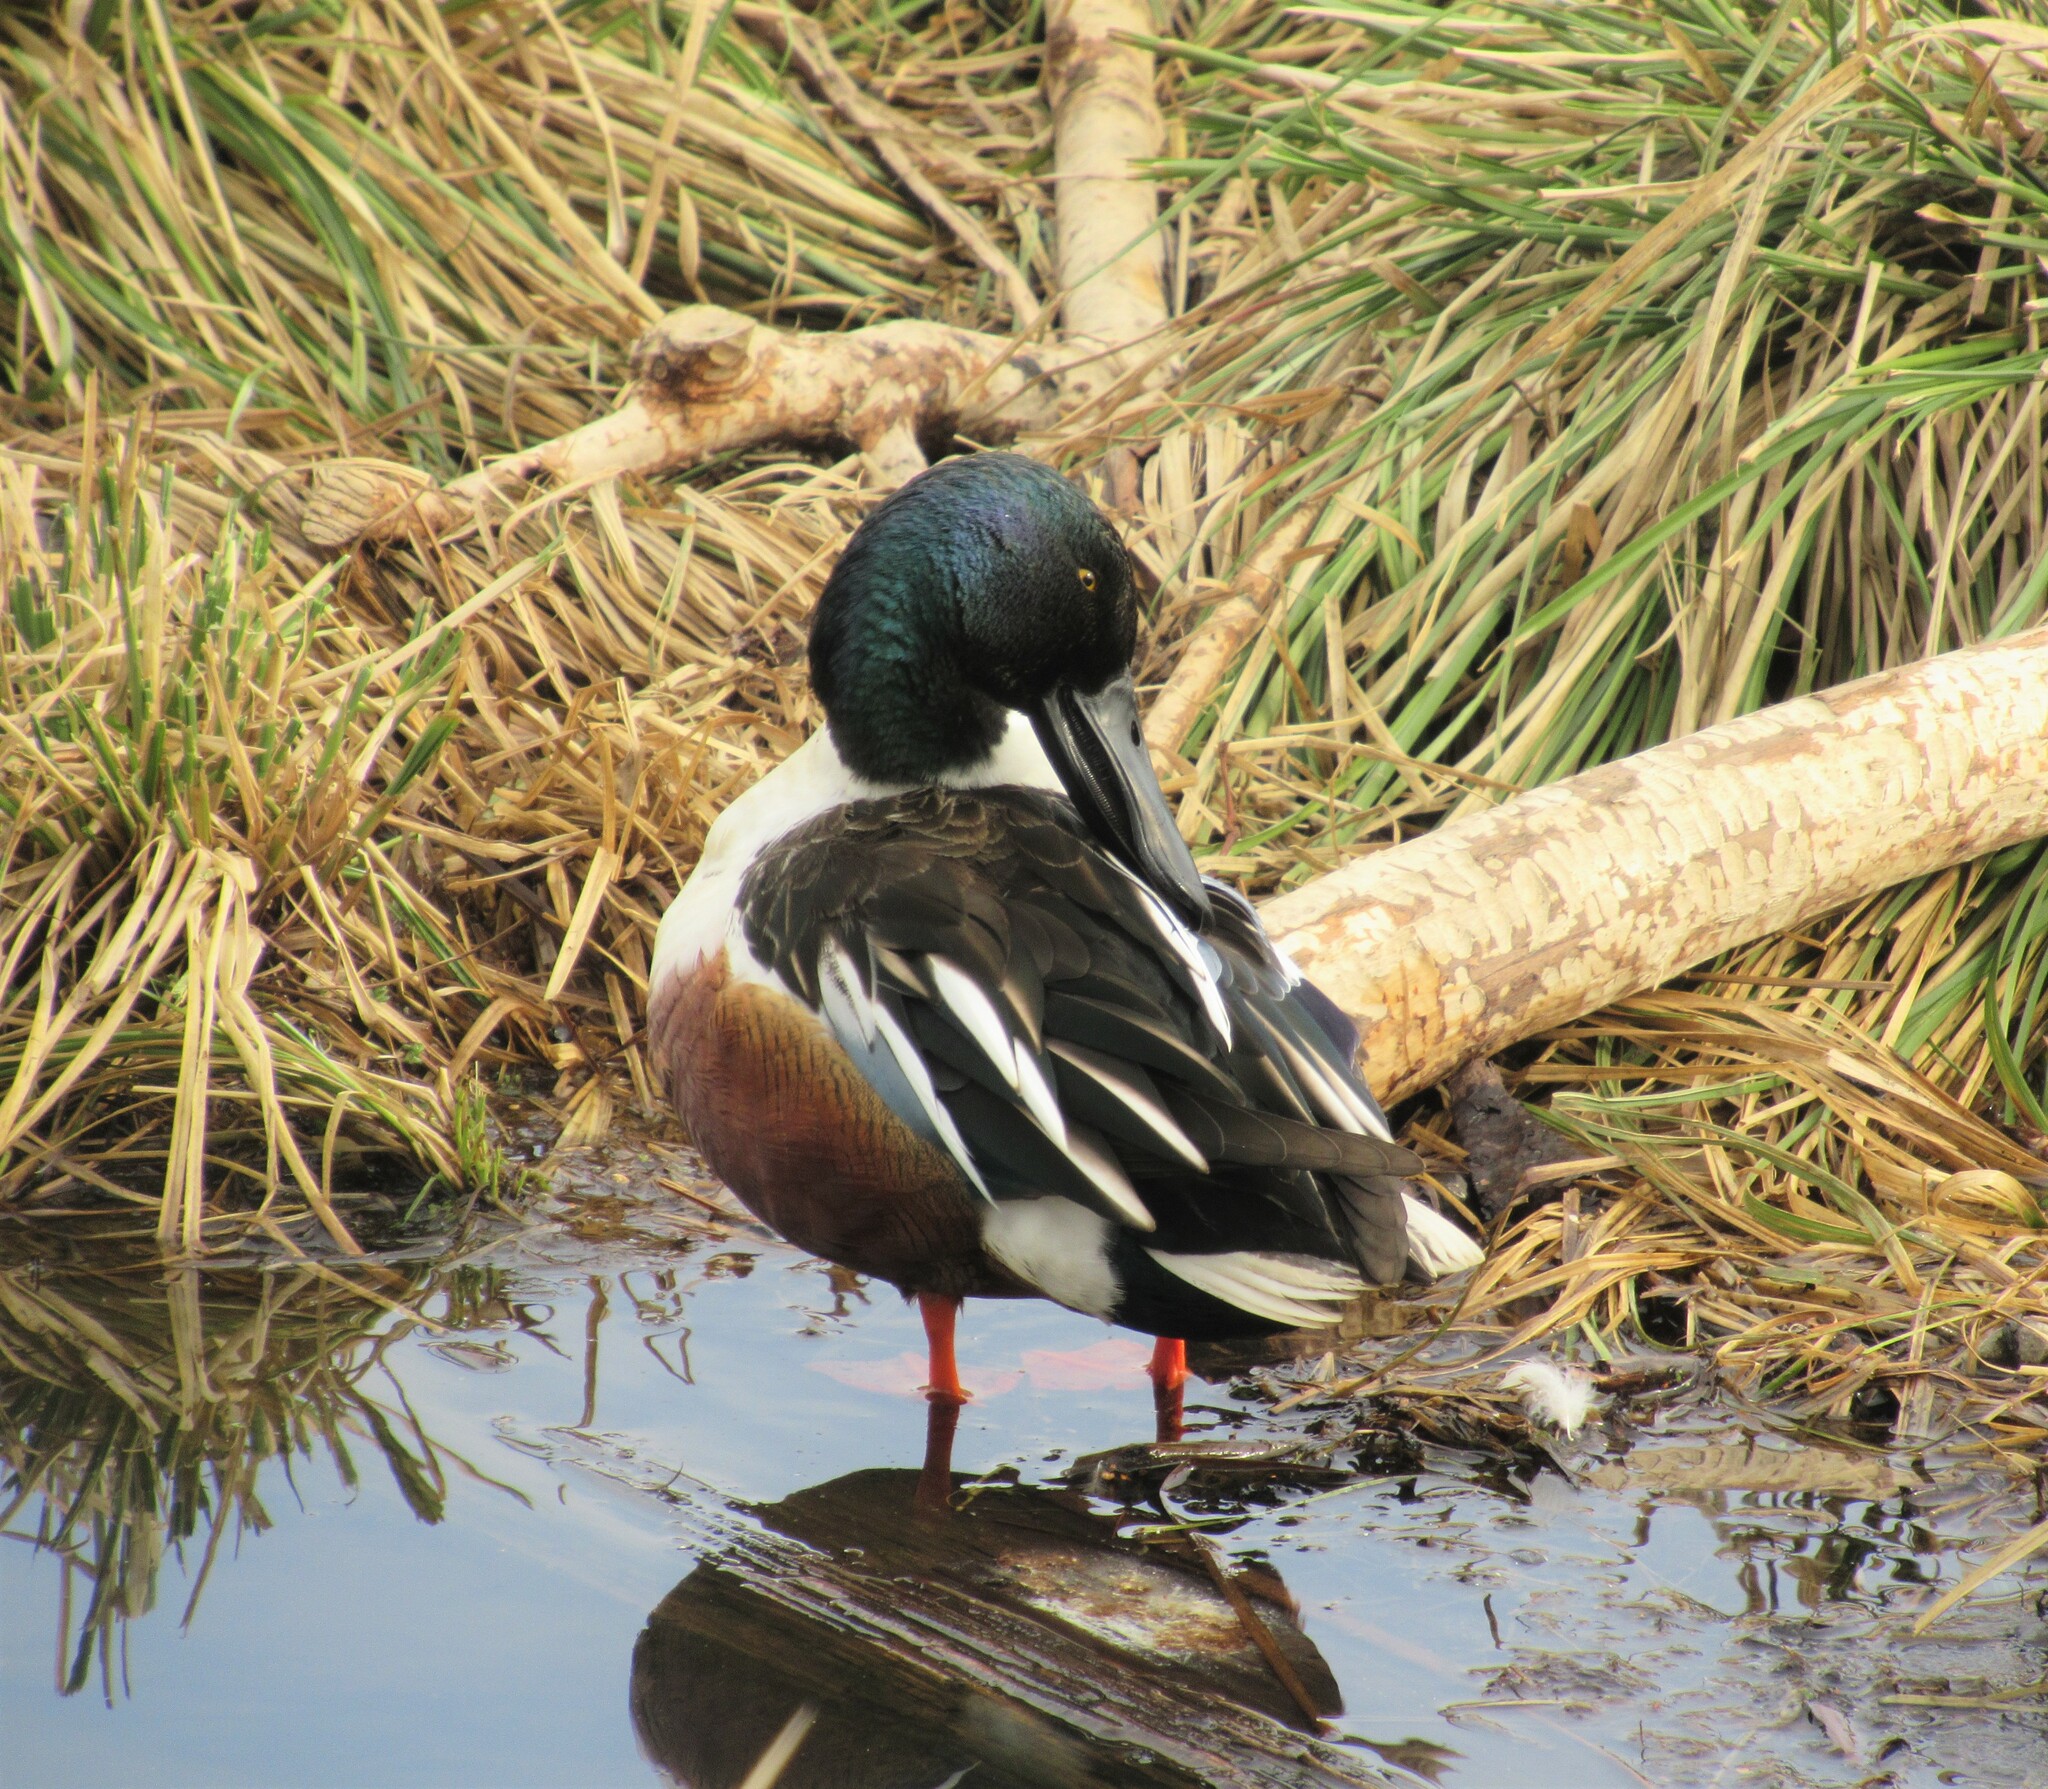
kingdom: Animalia
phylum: Chordata
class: Aves
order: Anseriformes
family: Anatidae
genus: Spatula
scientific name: Spatula clypeata
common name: Northern shoveler
